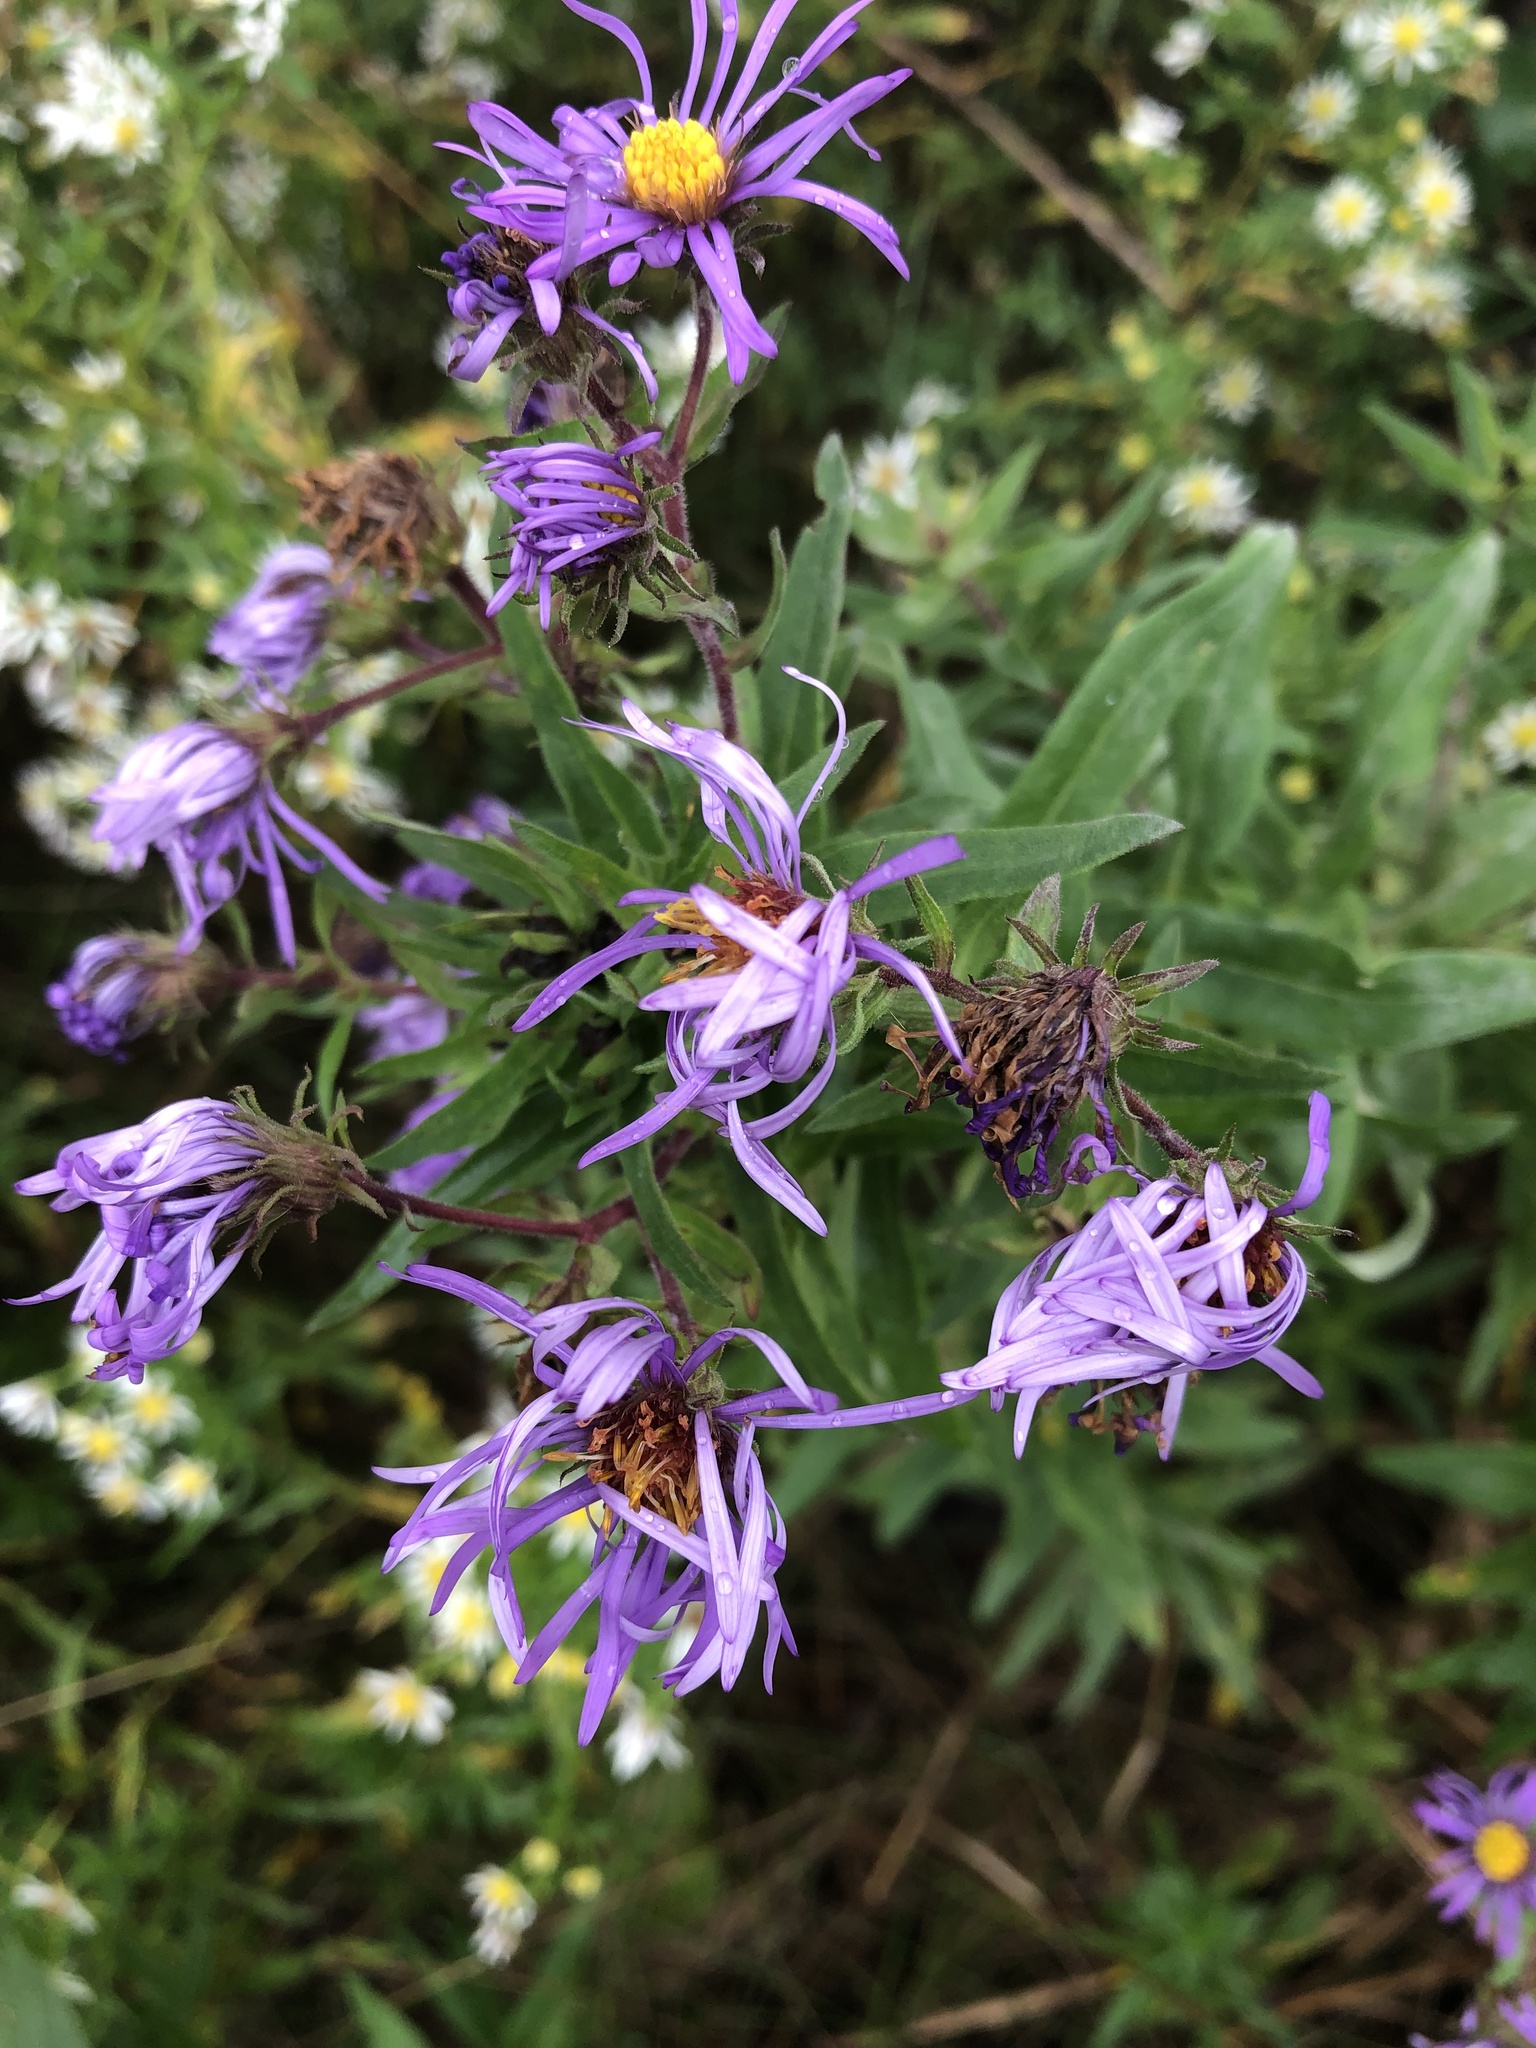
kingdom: Plantae
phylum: Tracheophyta
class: Magnoliopsida
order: Asterales
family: Asteraceae
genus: Symphyotrichum
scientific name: Symphyotrichum novae-angliae
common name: Michaelmas daisy
